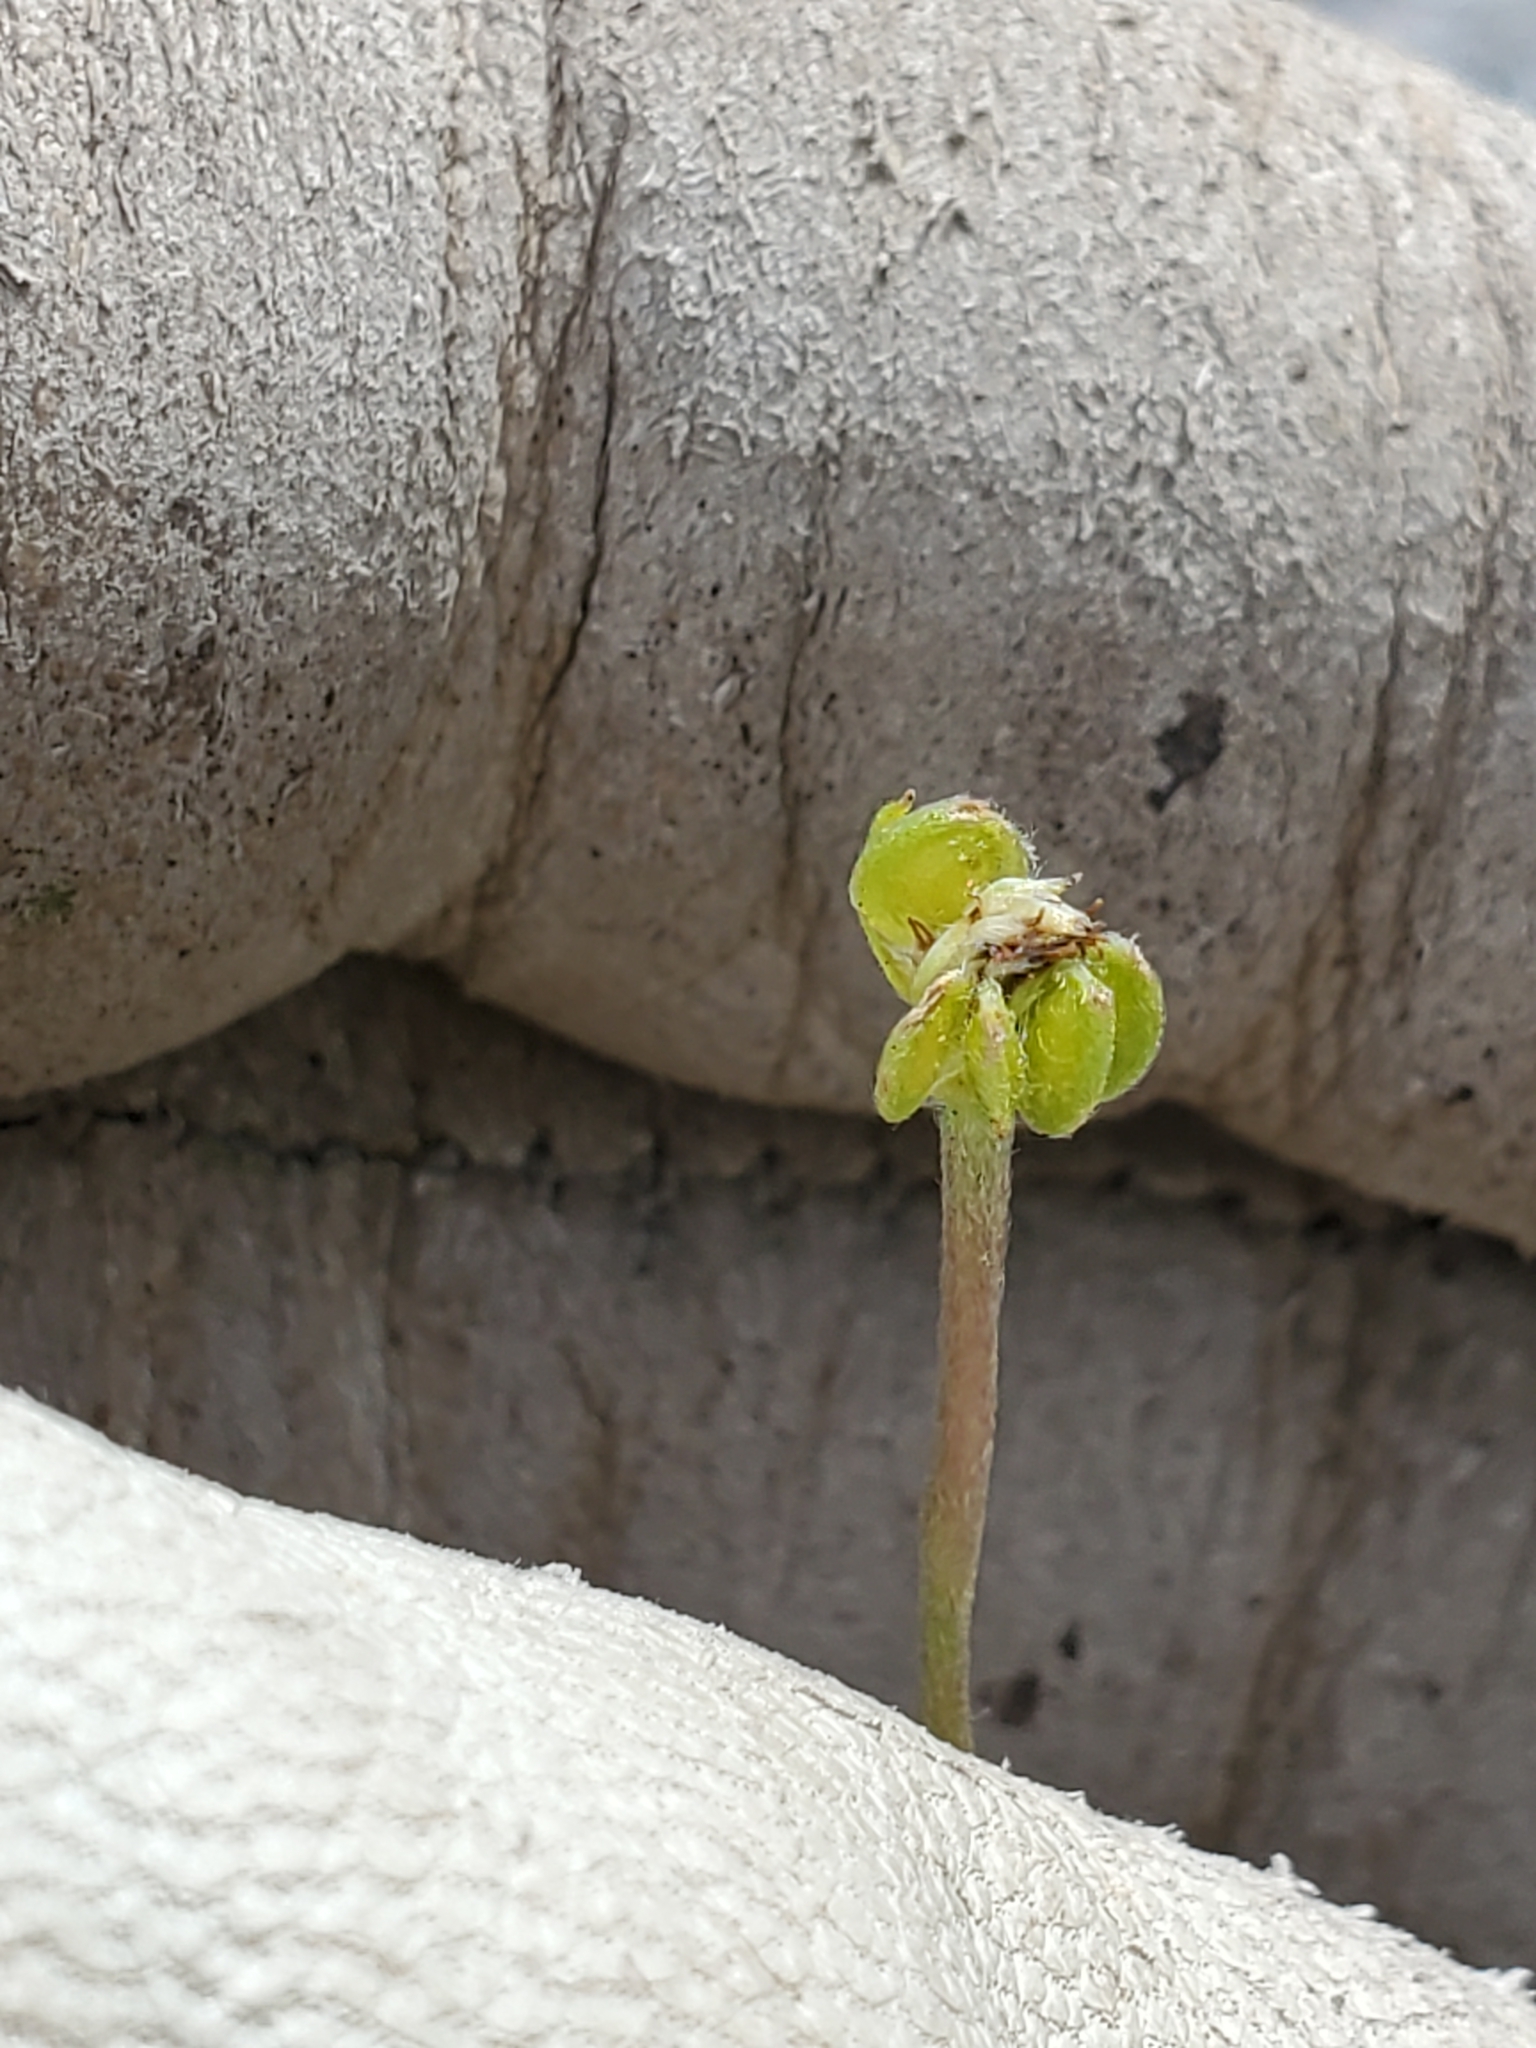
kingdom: Plantae
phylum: Tracheophyta
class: Magnoliopsida
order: Ranunculales
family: Ranunculaceae
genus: Anemone
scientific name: Anemone edwardsiana
